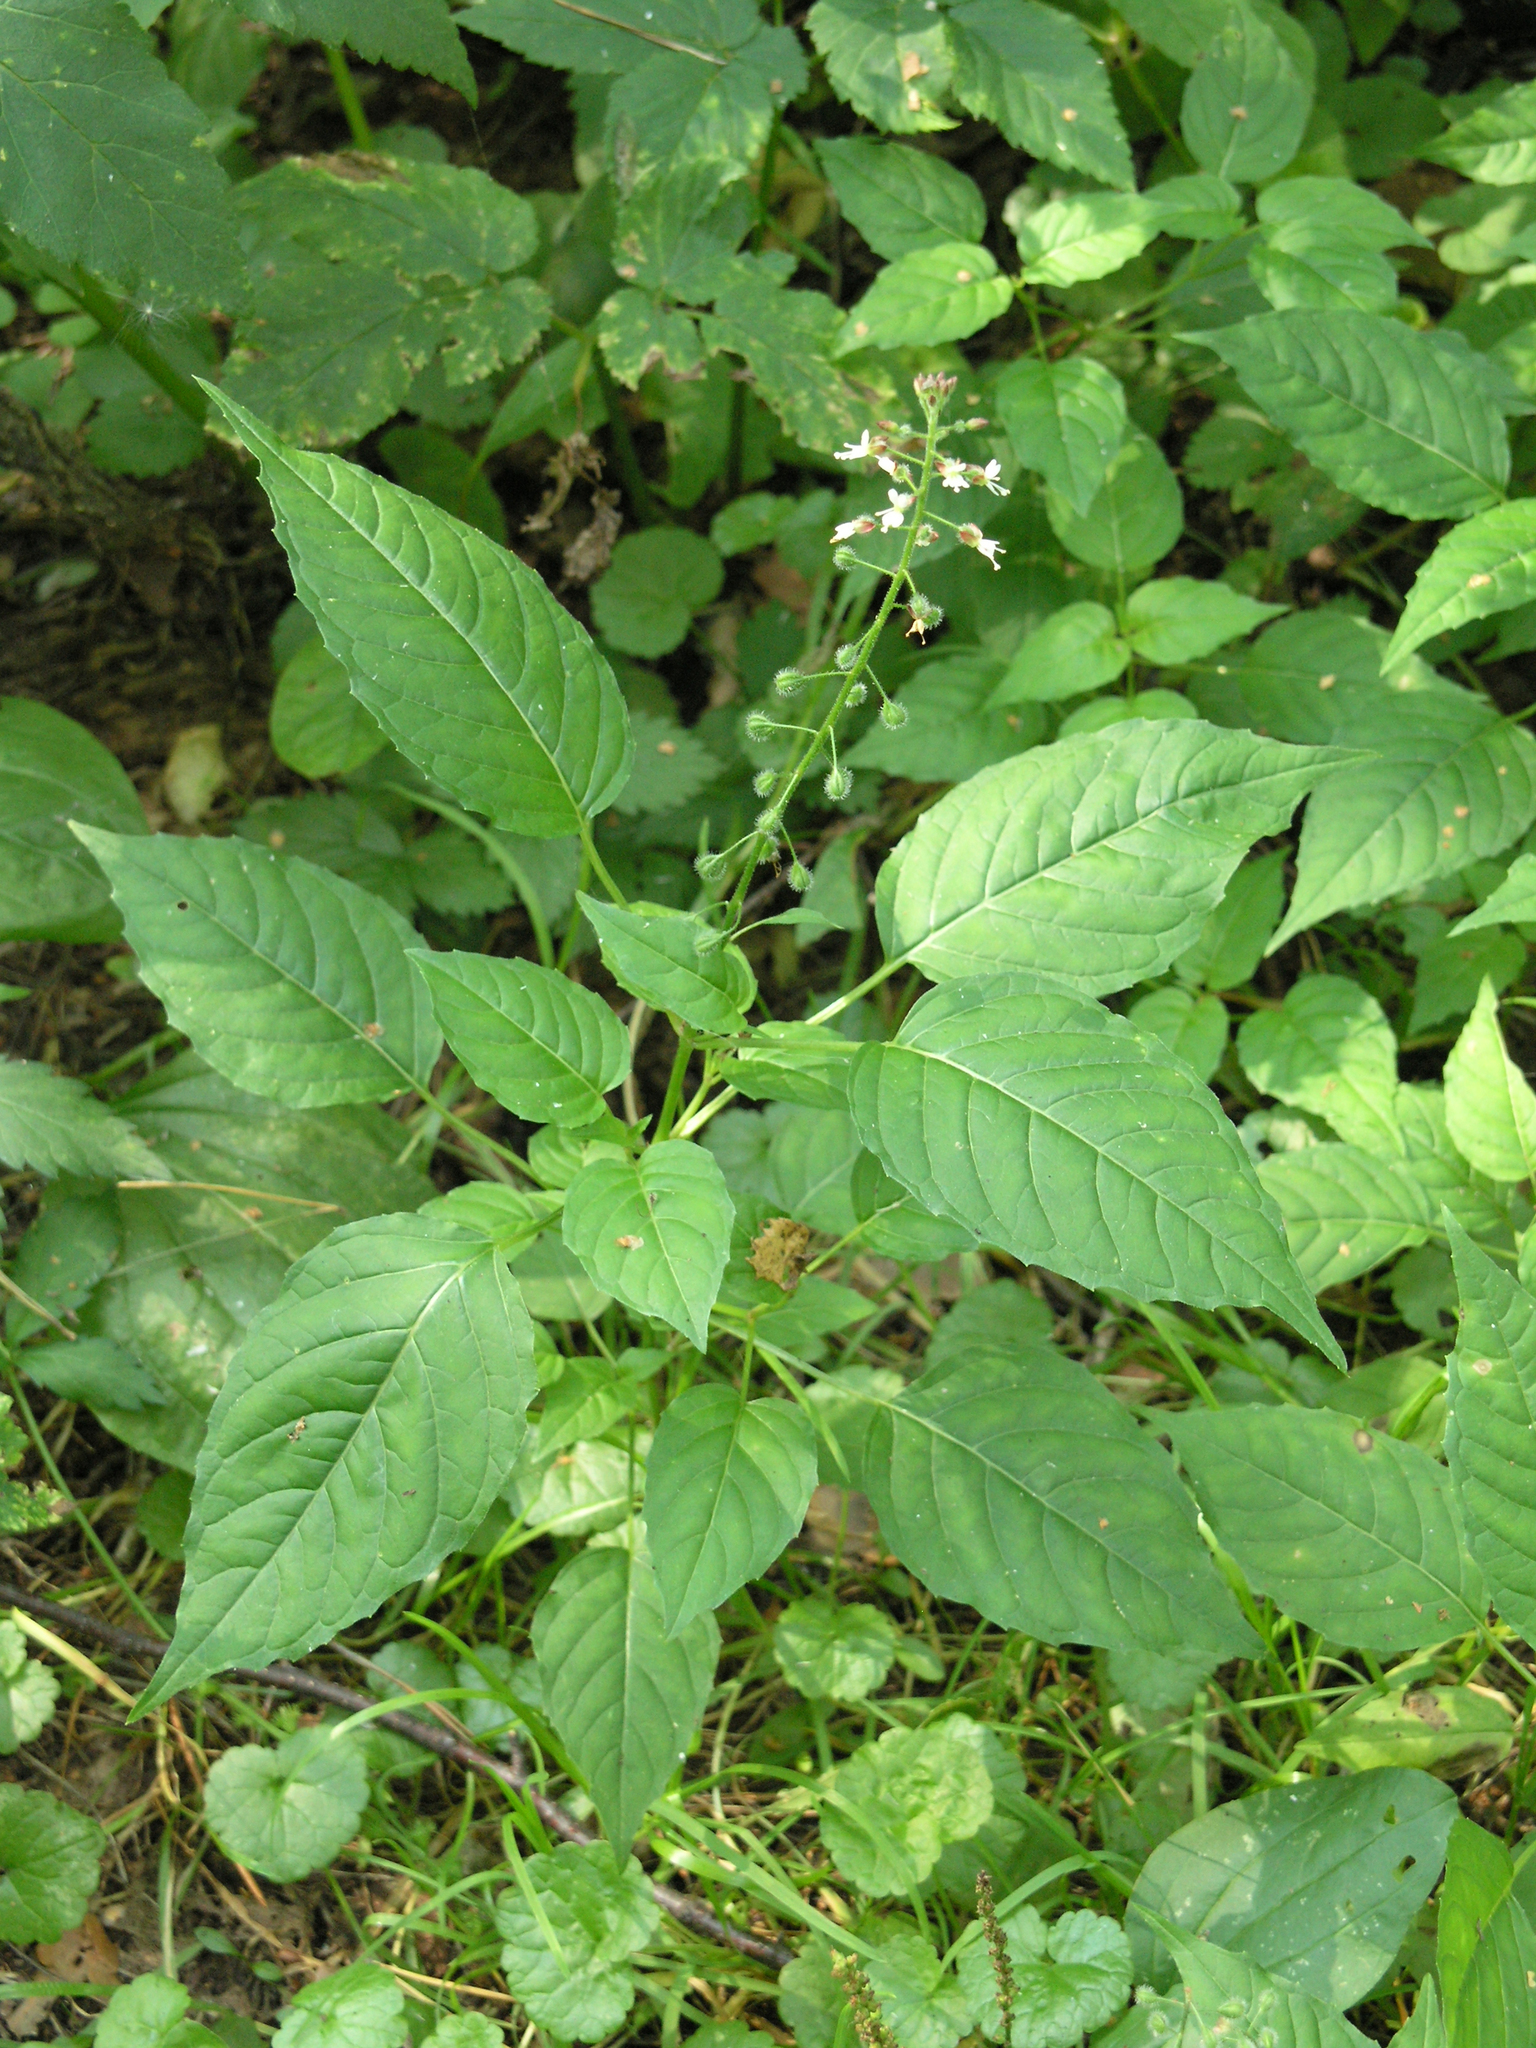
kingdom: Plantae
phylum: Tracheophyta
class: Magnoliopsida
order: Myrtales
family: Onagraceae
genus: Circaea
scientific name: Circaea lutetiana
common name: Enchanter's-nightshade
